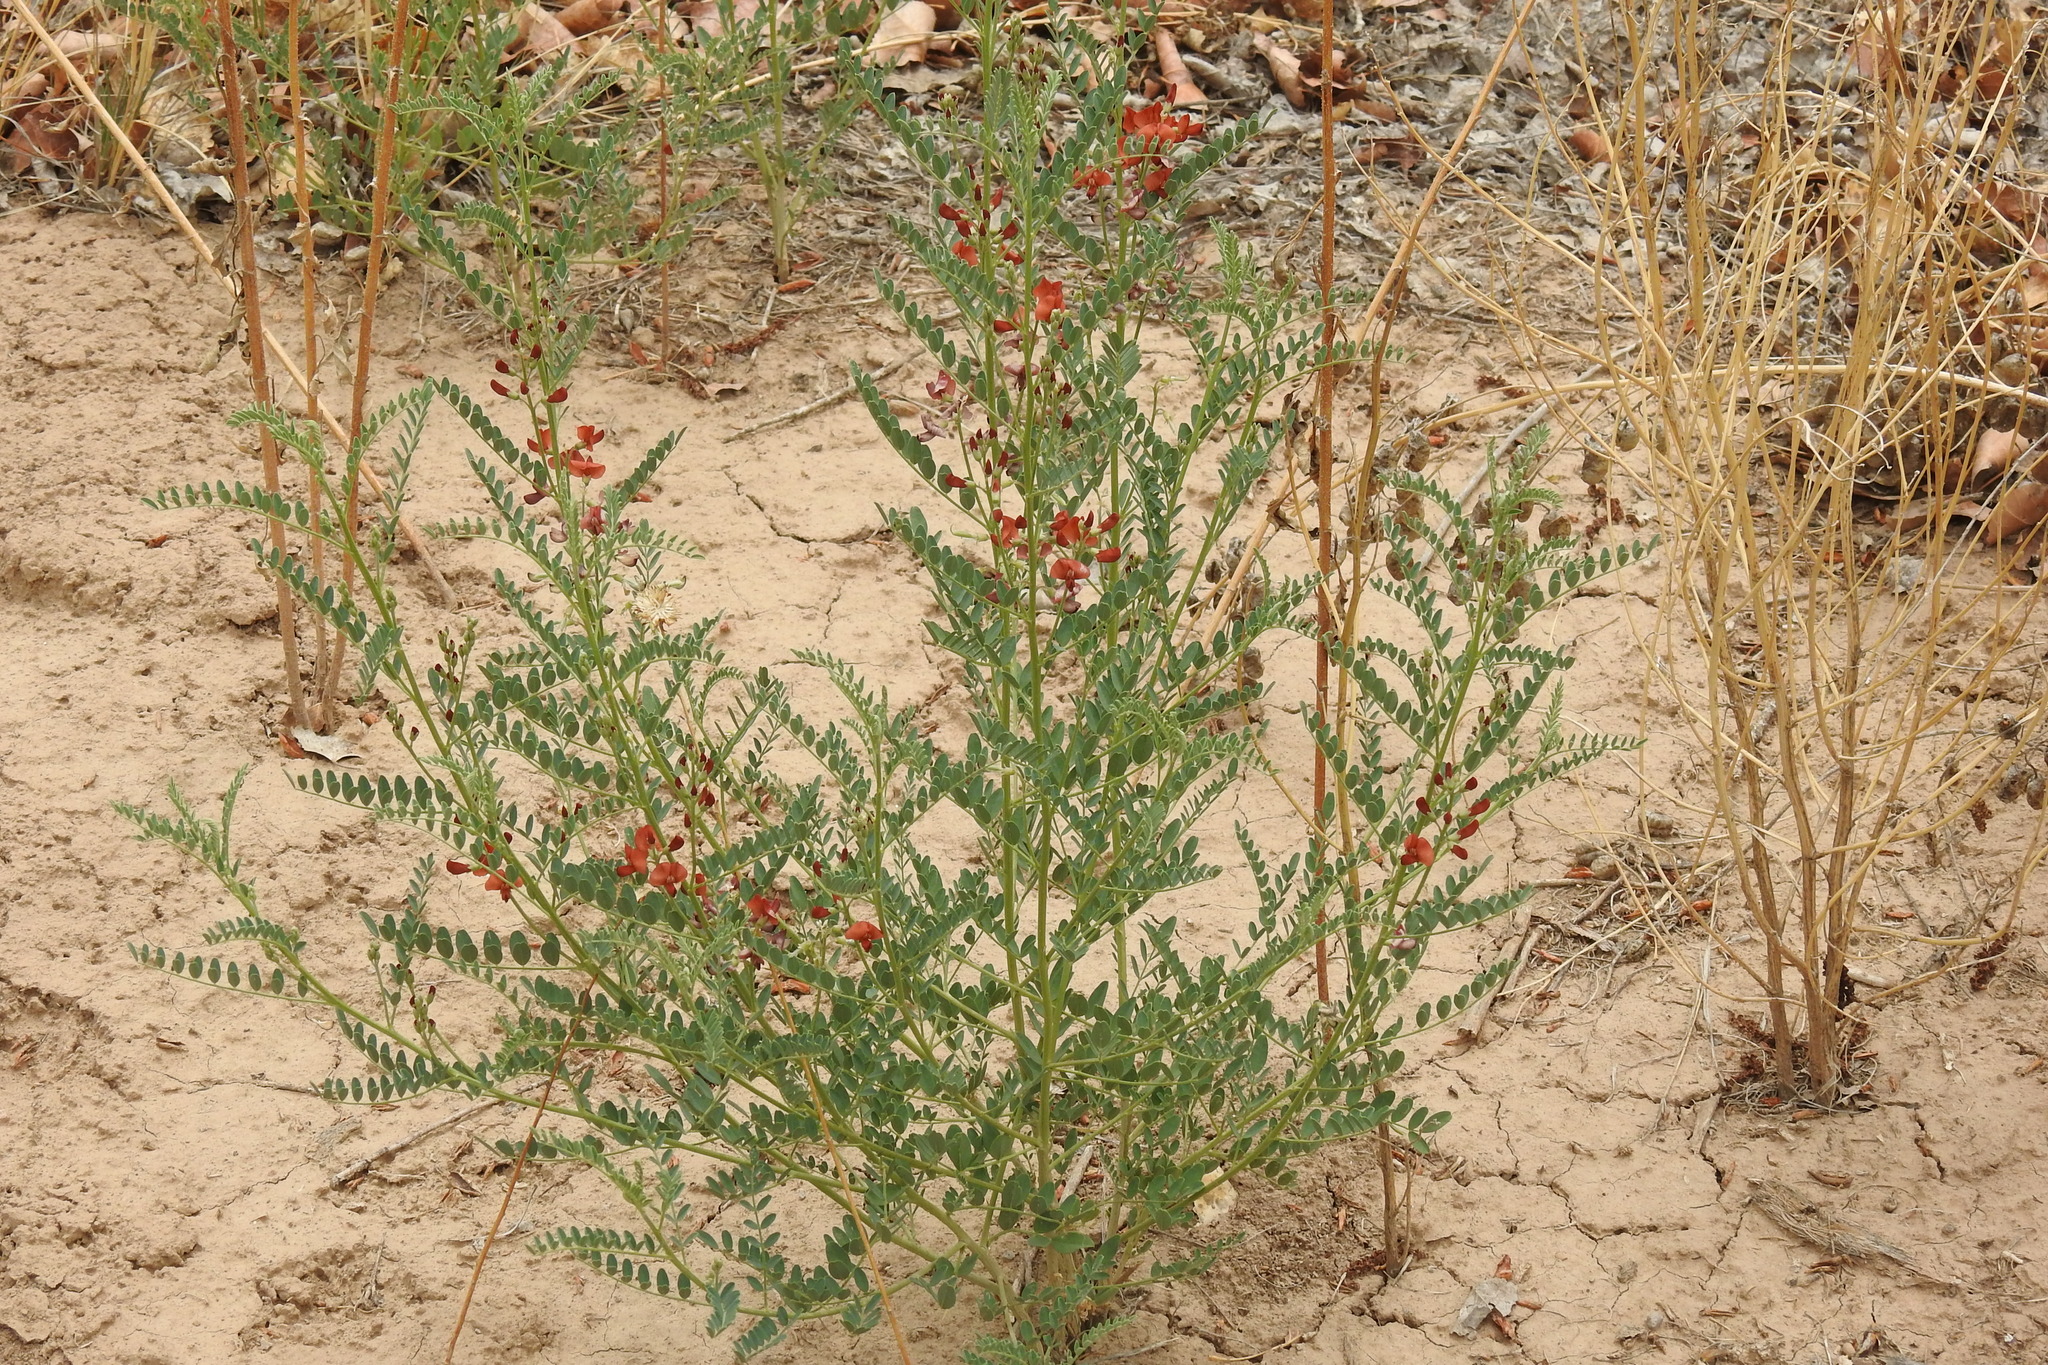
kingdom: Plantae
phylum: Tracheophyta
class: Magnoliopsida
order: Fabales
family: Fabaceae
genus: Sphaerophysa
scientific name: Sphaerophysa salsula
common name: Alkali swainsonpea
